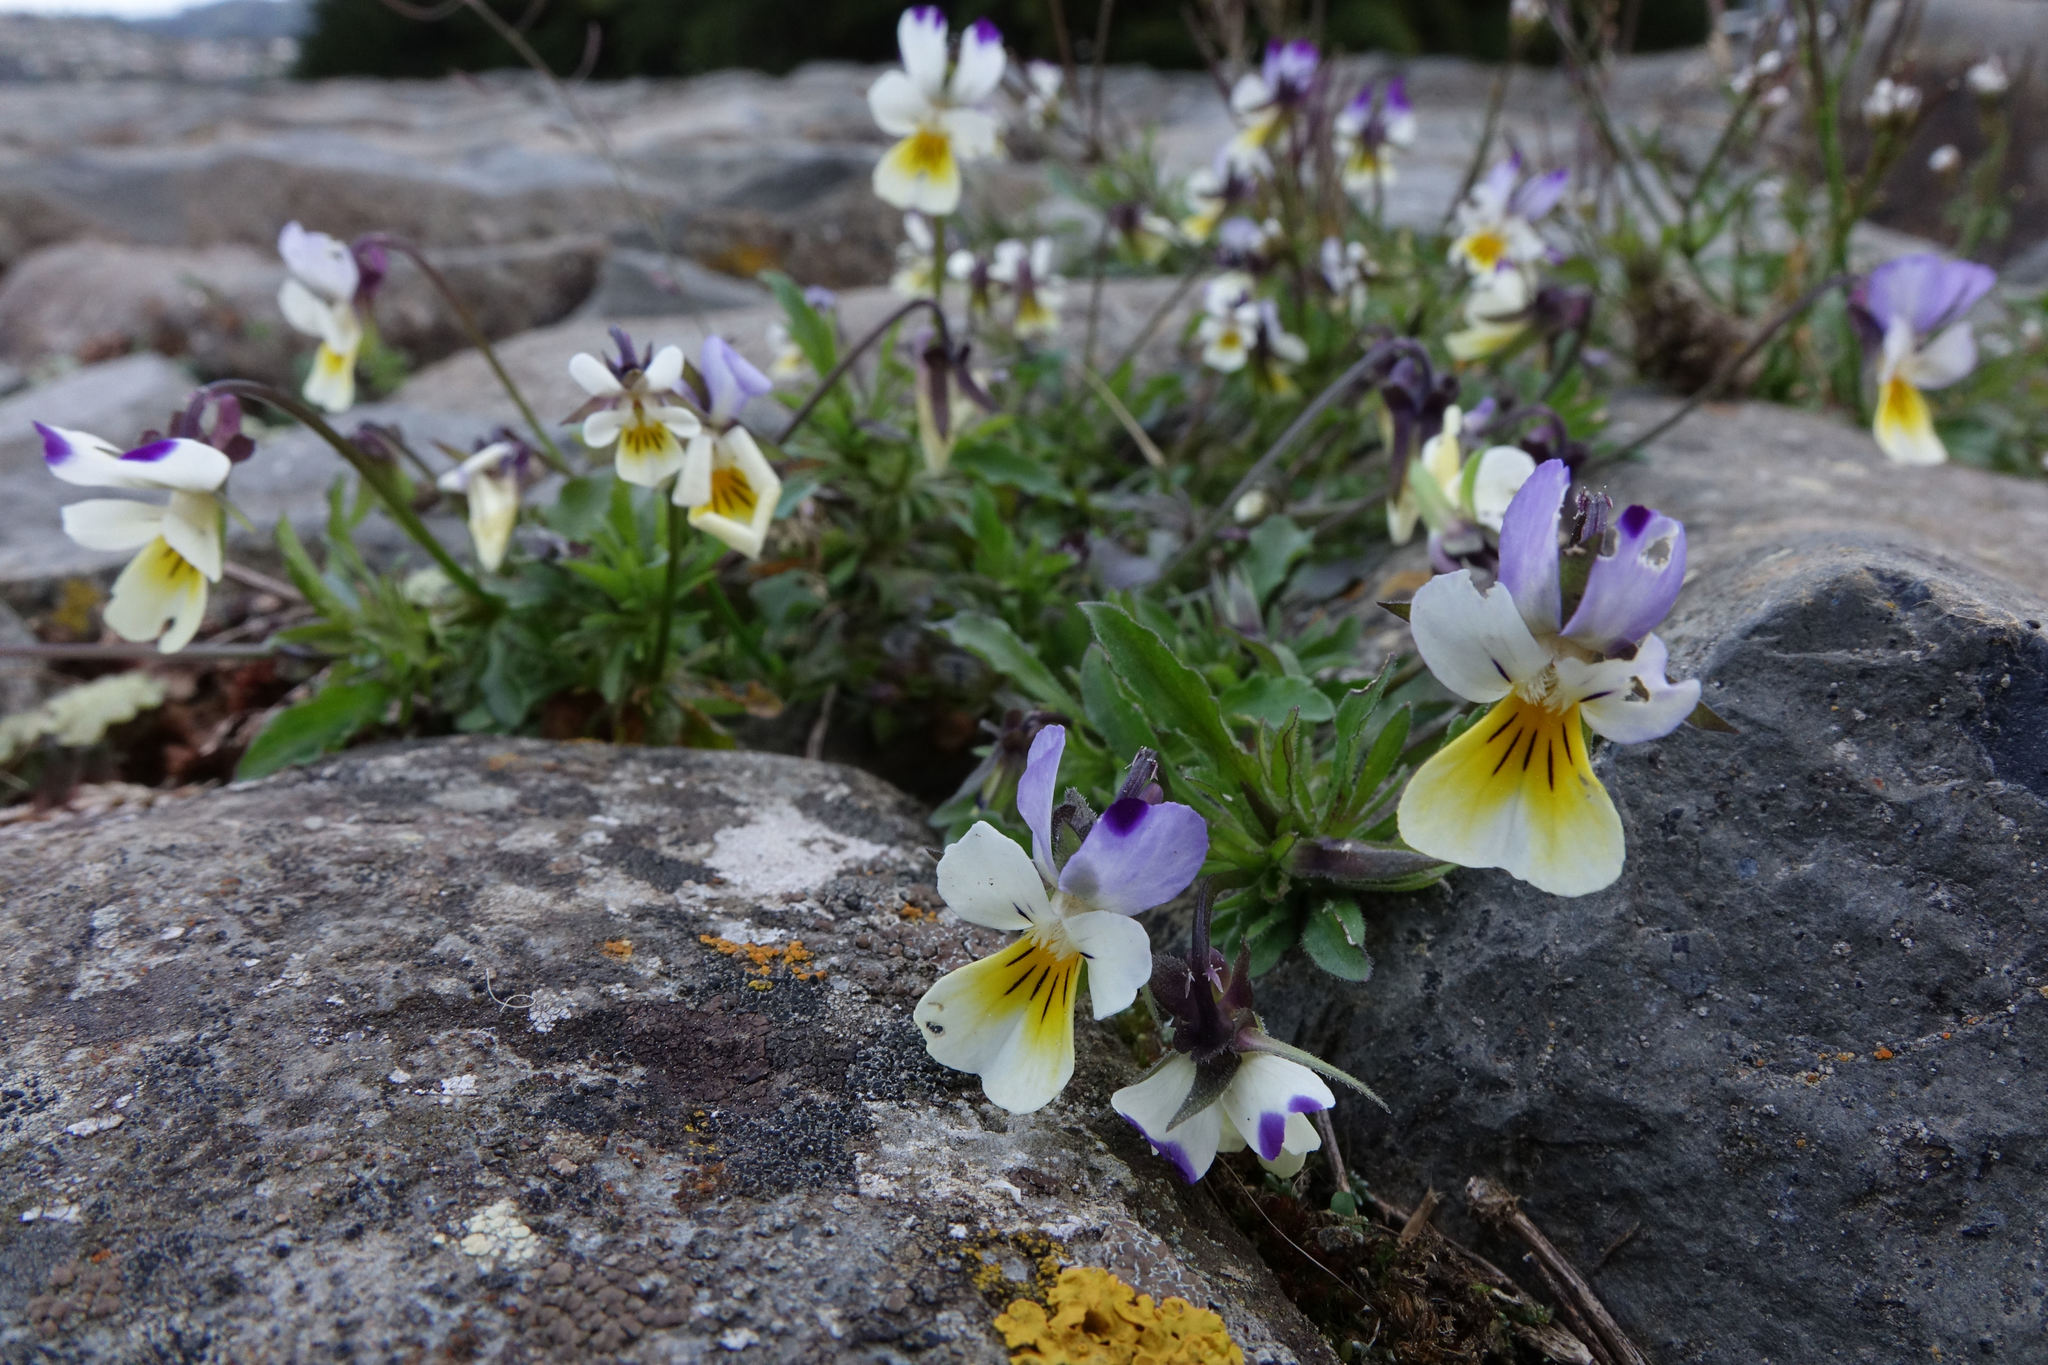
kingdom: Plantae
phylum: Tracheophyta
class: Magnoliopsida
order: Malpighiales
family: Violaceae
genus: Viola
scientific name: Viola arvensis
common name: Field pansy
